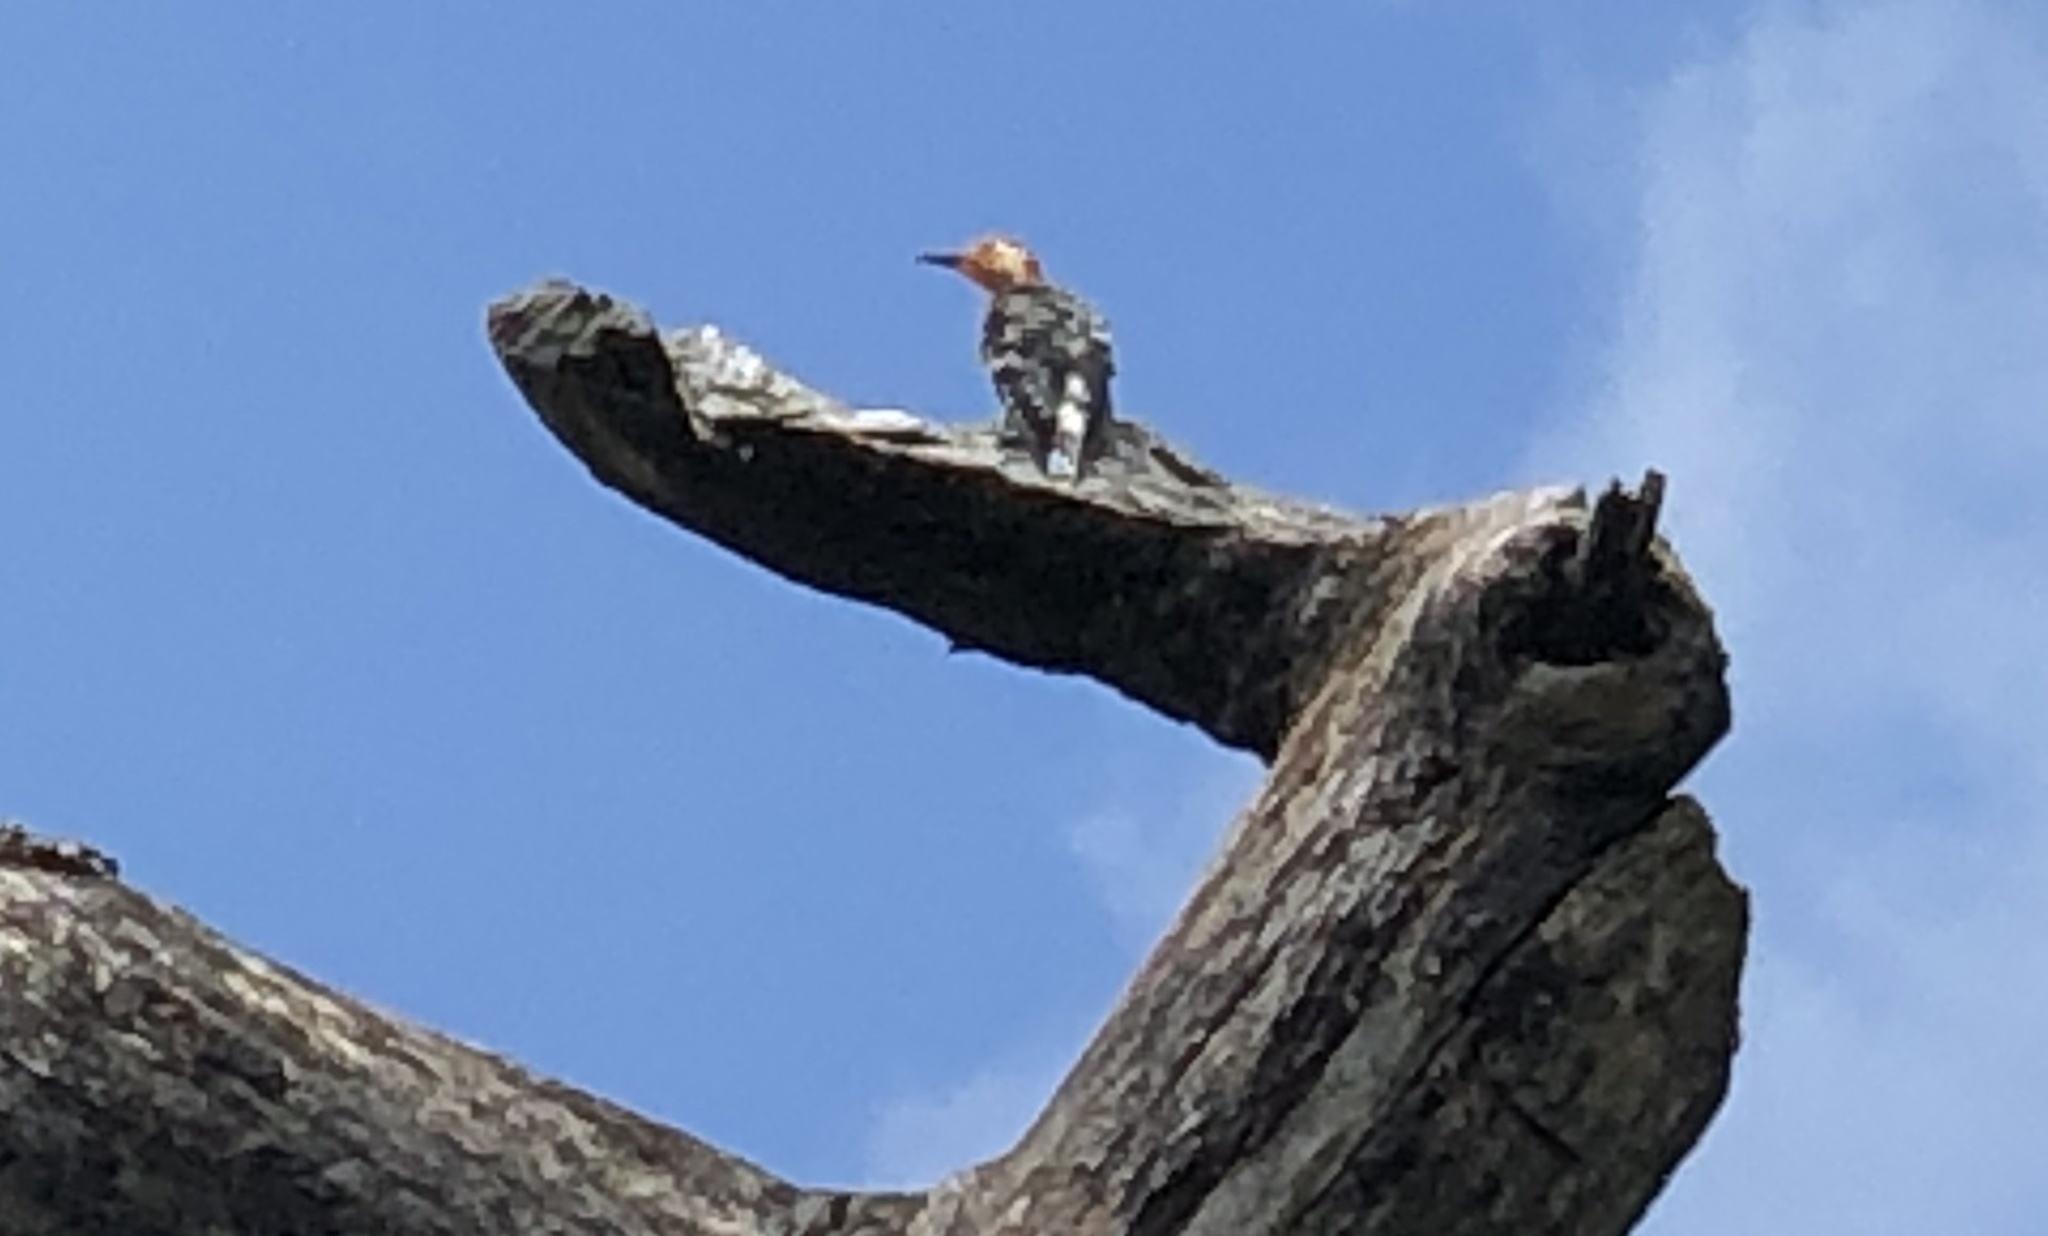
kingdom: Animalia
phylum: Chordata
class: Aves
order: Piciformes
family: Picidae
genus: Melanerpes
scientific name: Melanerpes carolinus
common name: Red-bellied woodpecker
